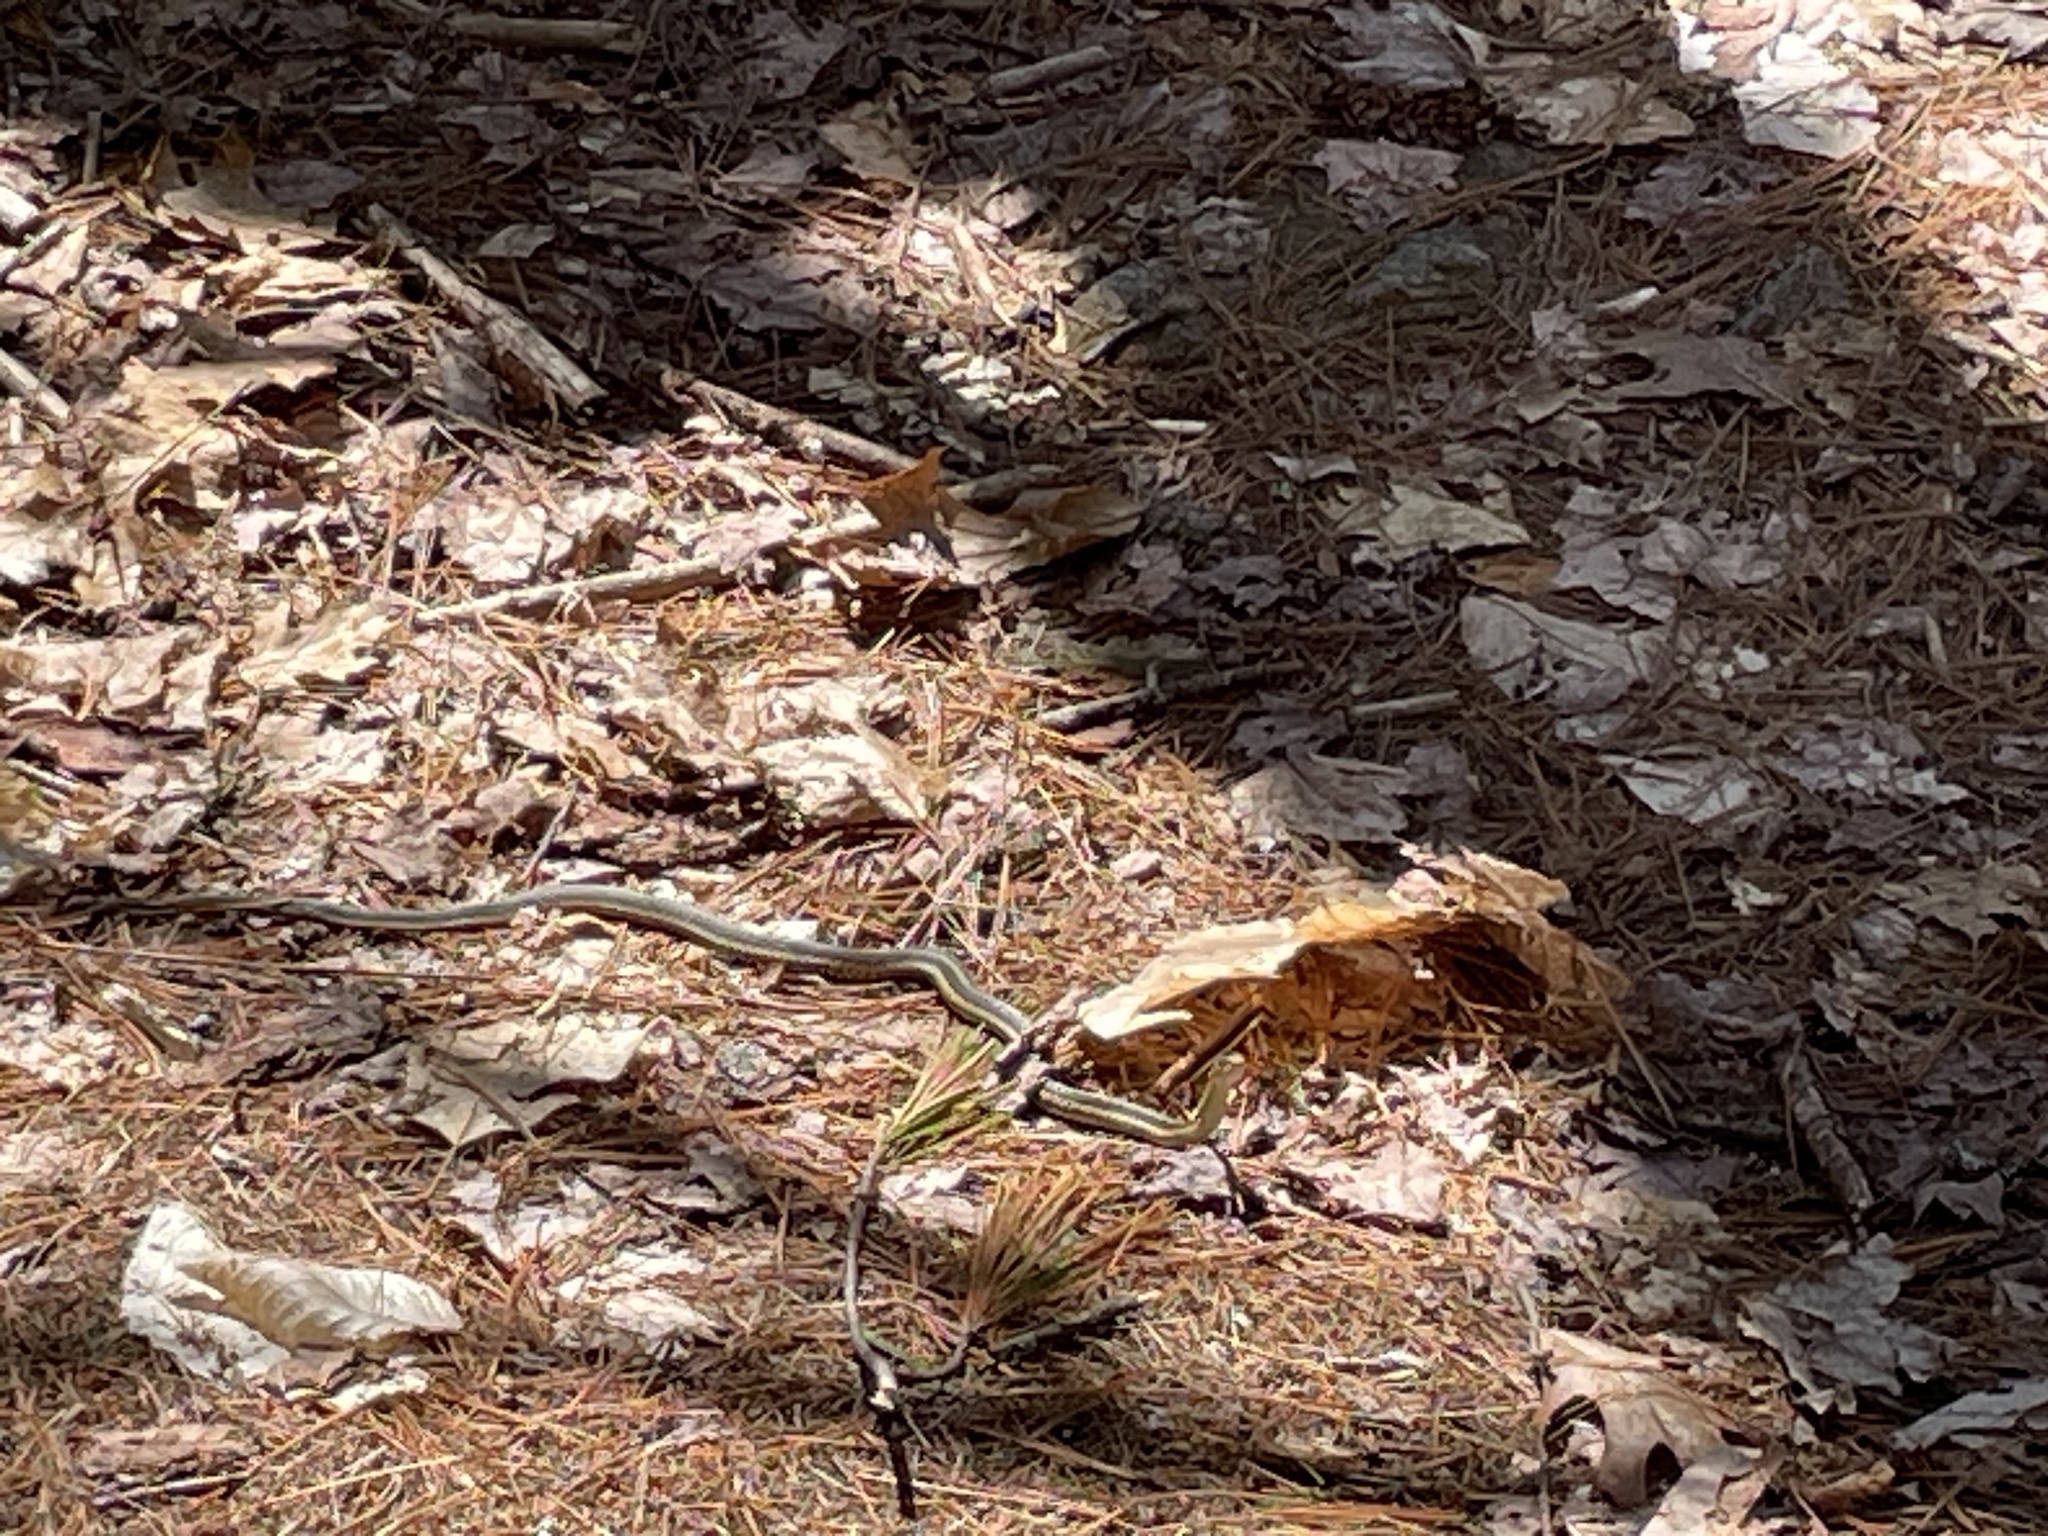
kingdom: Animalia
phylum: Chordata
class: Squamata
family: Colubridae
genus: Thamnophis
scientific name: Thamnophis sirtalis
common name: Common garter snake
